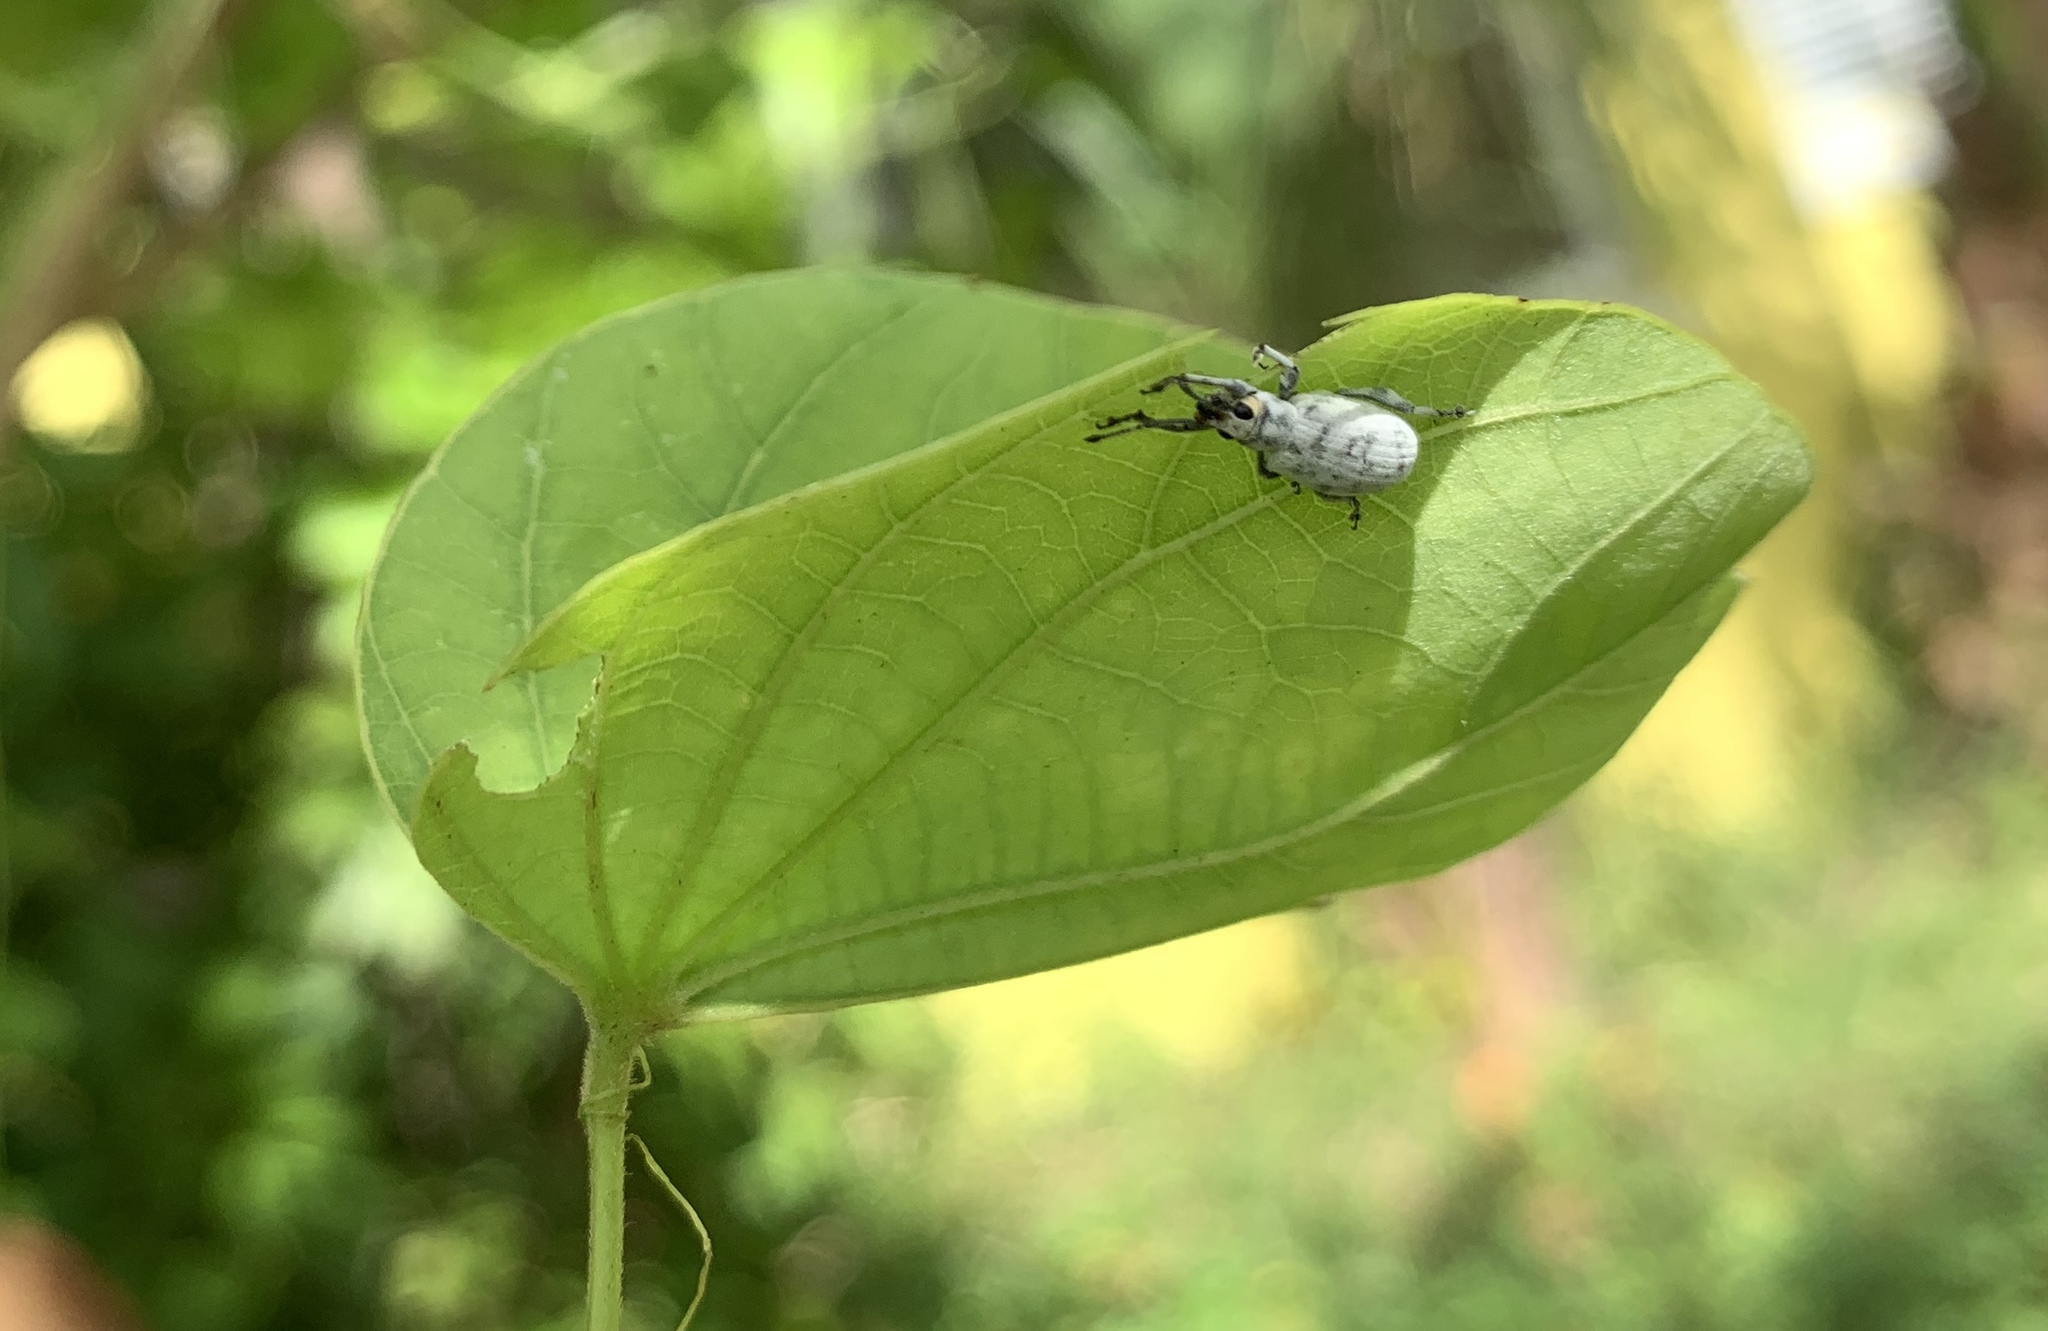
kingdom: Animalia
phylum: Arthropoda
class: Insecta
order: Coleoptera
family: Curculionidae
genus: Myllocerus
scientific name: Myllocerus undecimpustulatus
